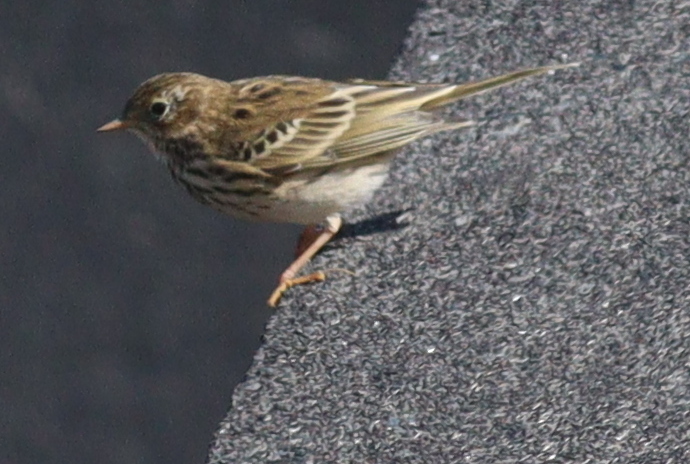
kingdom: Animalia
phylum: Chordata
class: Aves
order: Passeriformes
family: Motacillidae
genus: Anthus
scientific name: Anthus pratensis
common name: Meadow pipit
